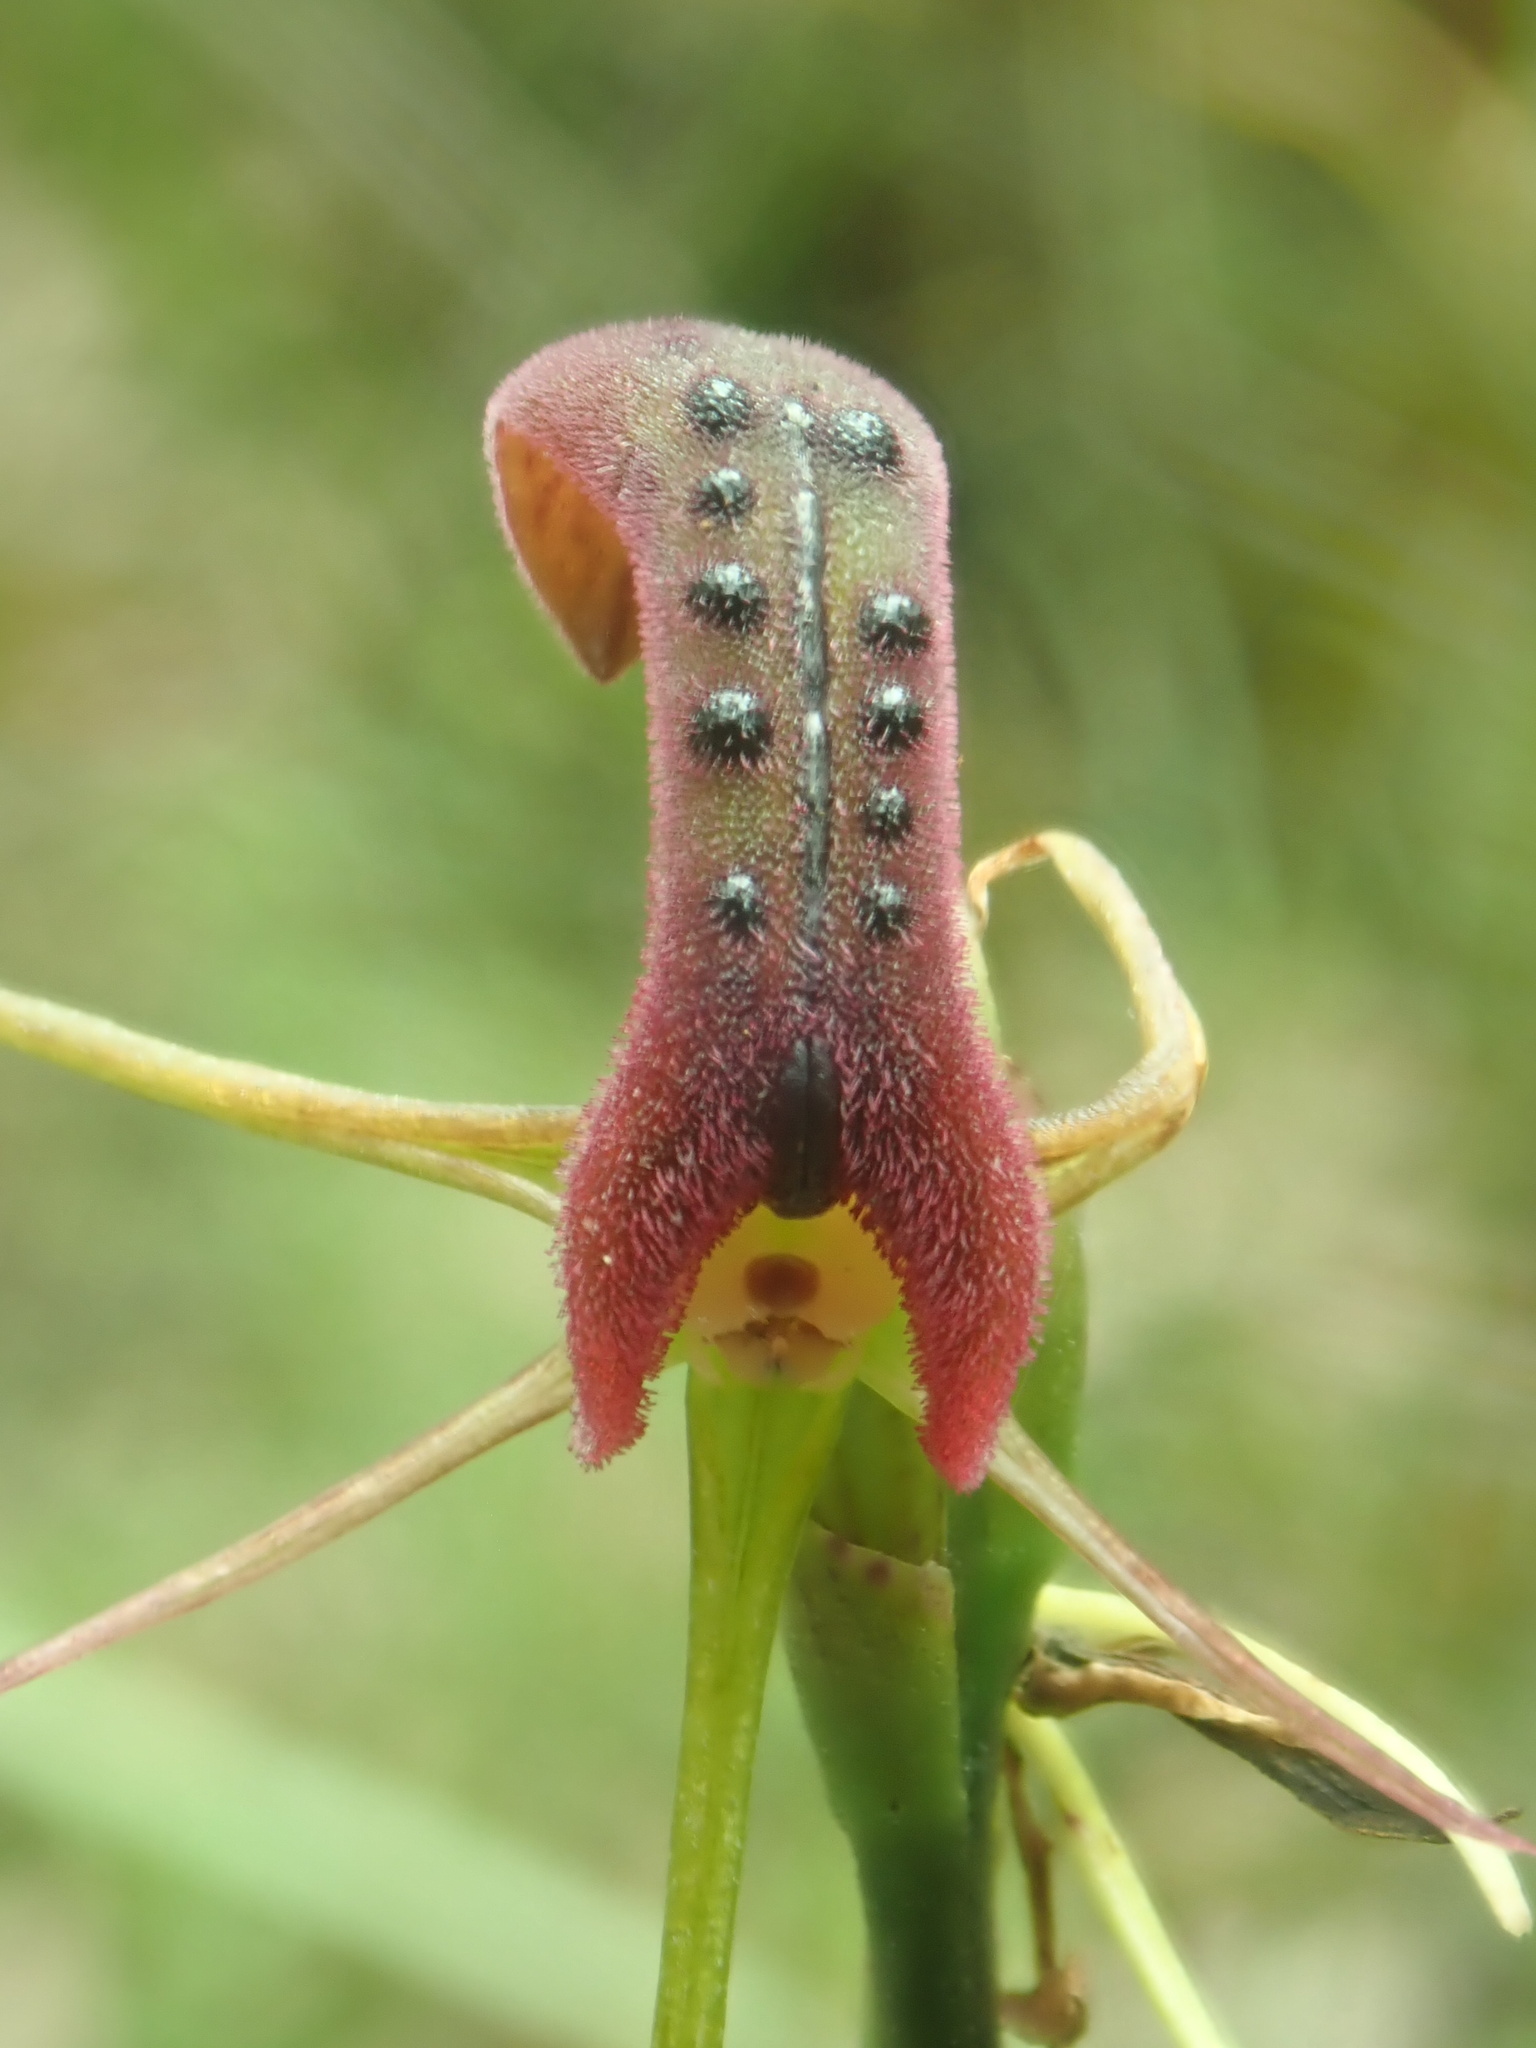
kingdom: Plantae
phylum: Tracheophyta
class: Liliopsida
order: Asparagales
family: Orchidaceae
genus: Cryptostylis
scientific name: Cryptostylis leptochila
